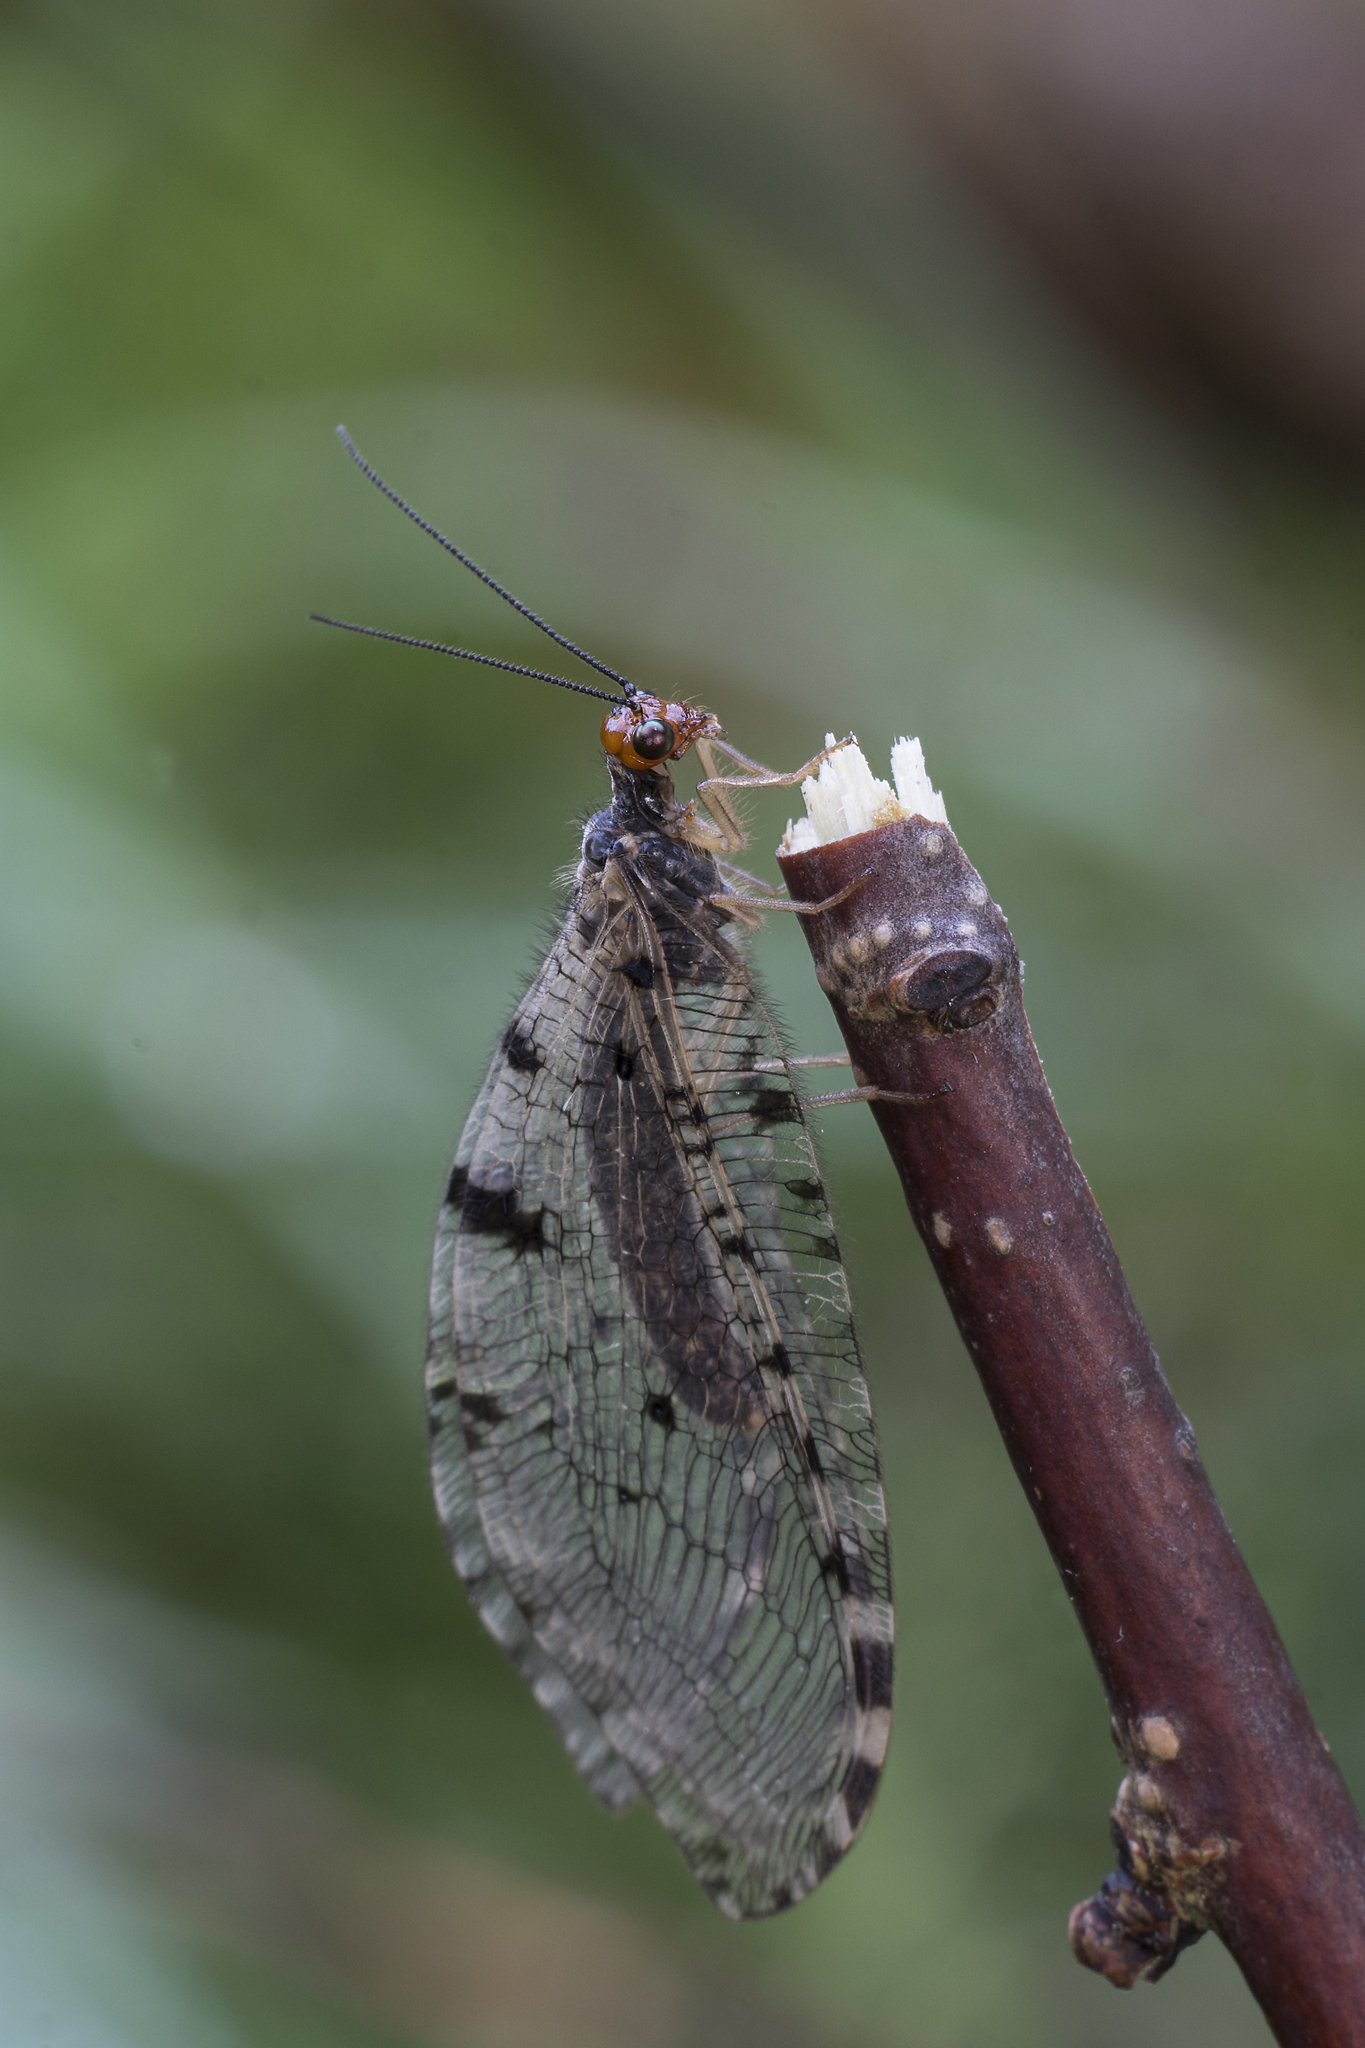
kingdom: Animalia
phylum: Arthropoda
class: Insecta
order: Neuroptera
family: Osmylidae
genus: Osmylus
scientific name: Osmylus fulvicephalus
